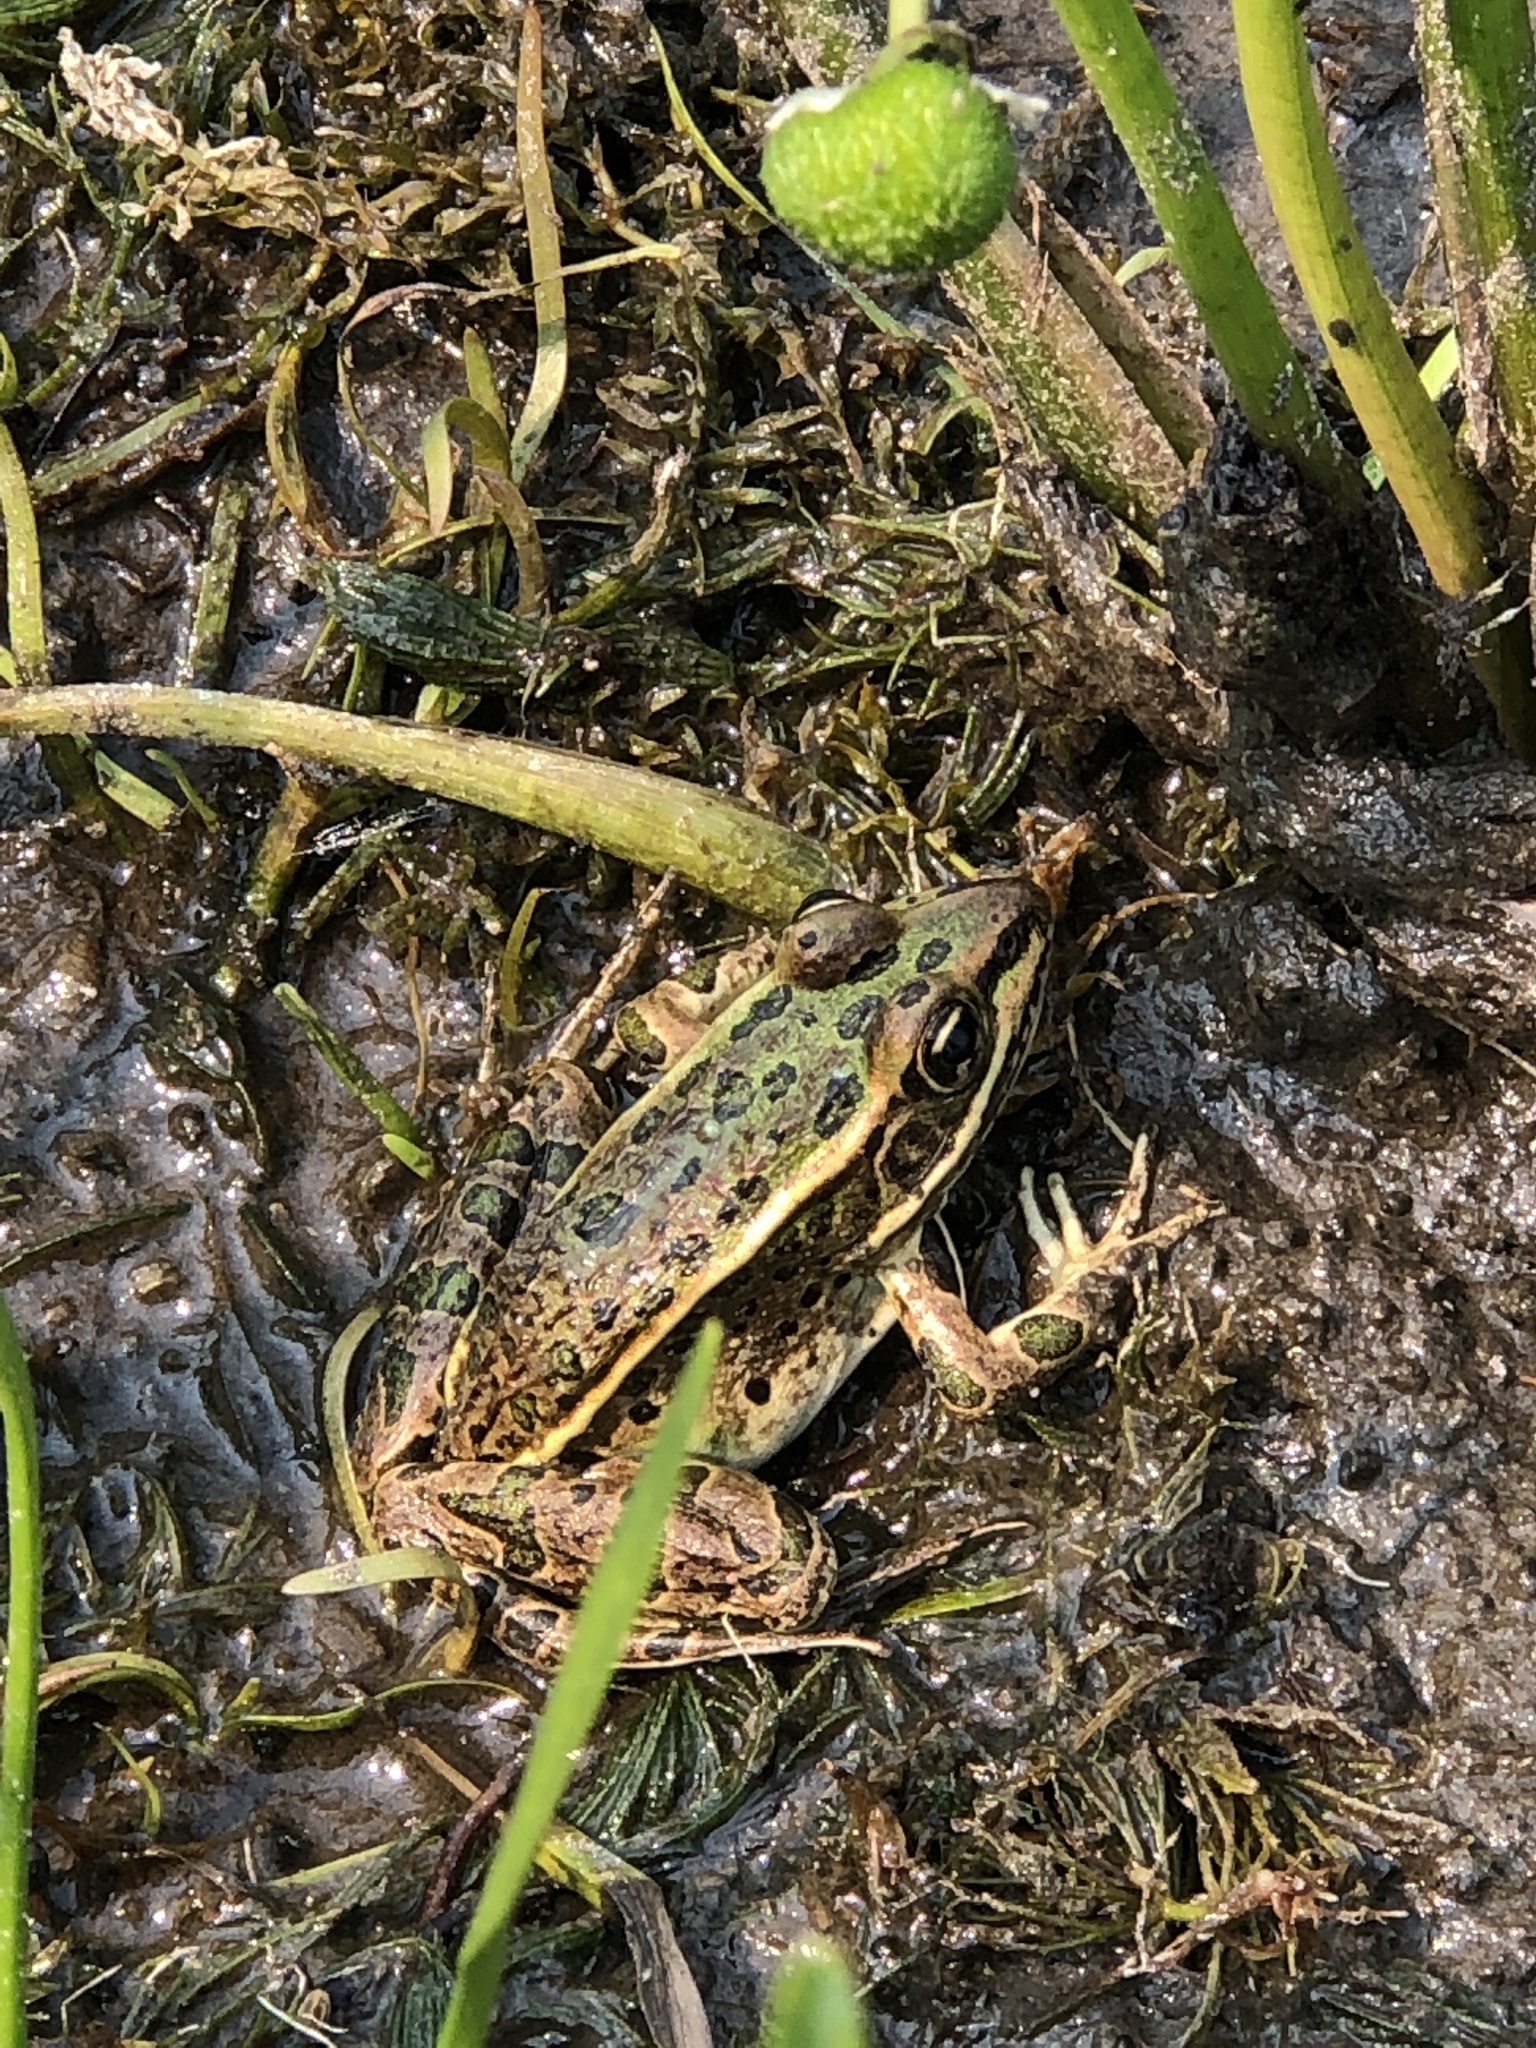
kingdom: Animalia
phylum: Chordata
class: Amphibia
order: Anura
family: Ranidae
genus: Lithobates
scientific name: Lithobates pipiens
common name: Northern leopard frog
